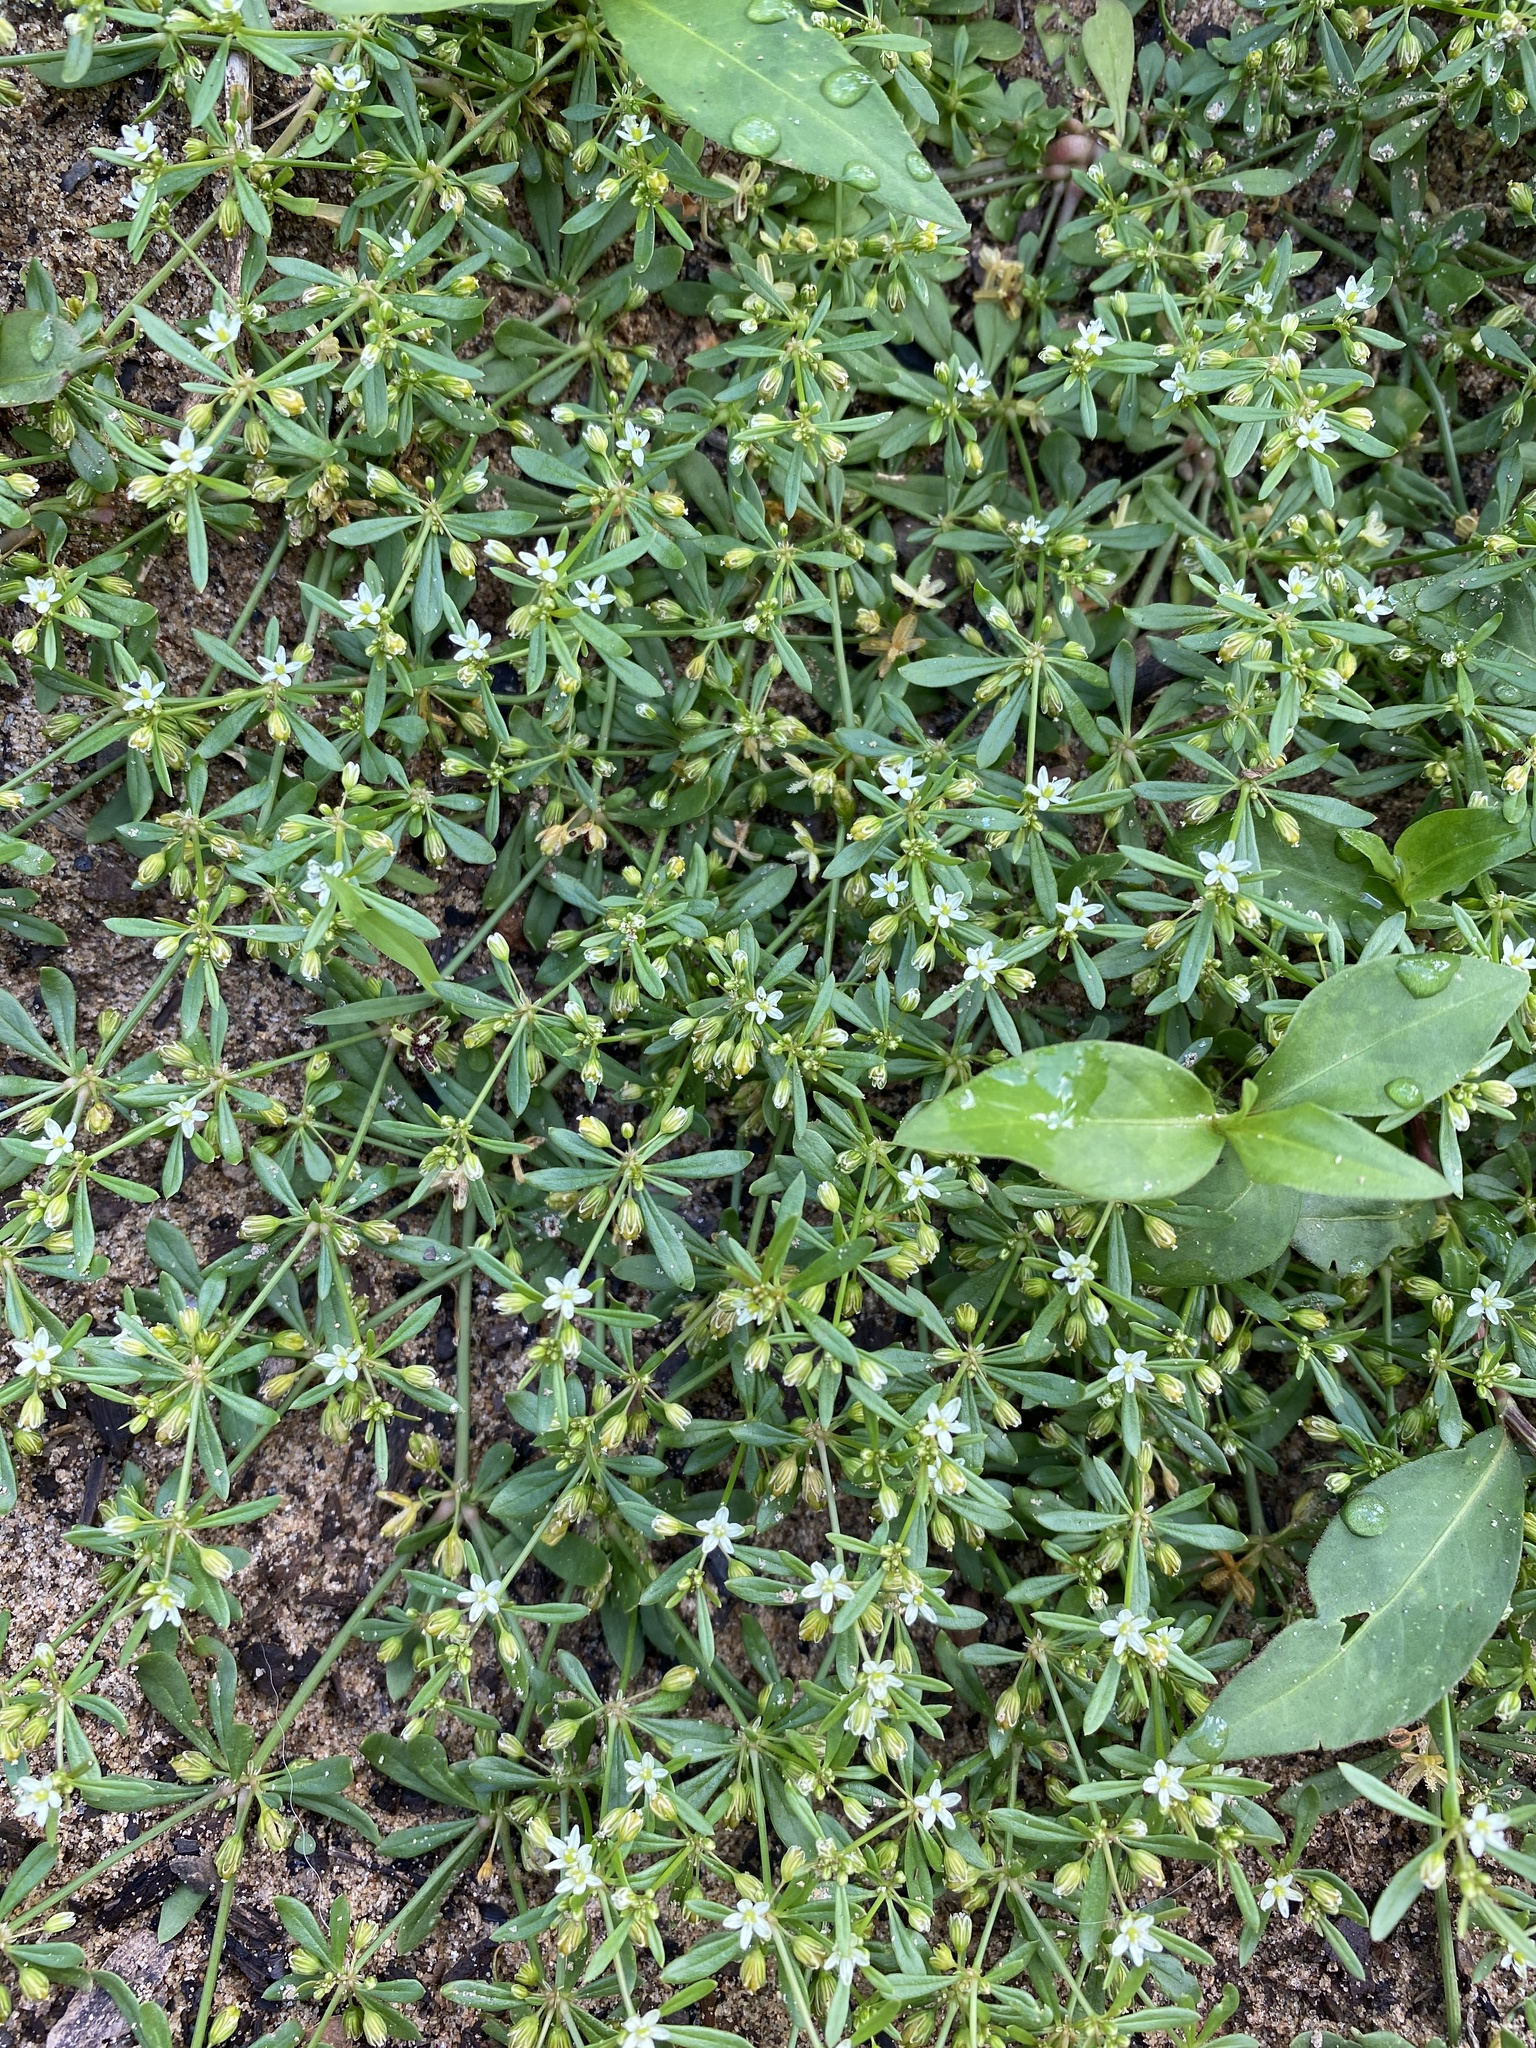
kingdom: Plantae
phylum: Tracheophyta
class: Magnoliopsida
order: Caryophyllales
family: Molluginaceae
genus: Mollugo
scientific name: Mollugo verticillata
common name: Green carpetweed
